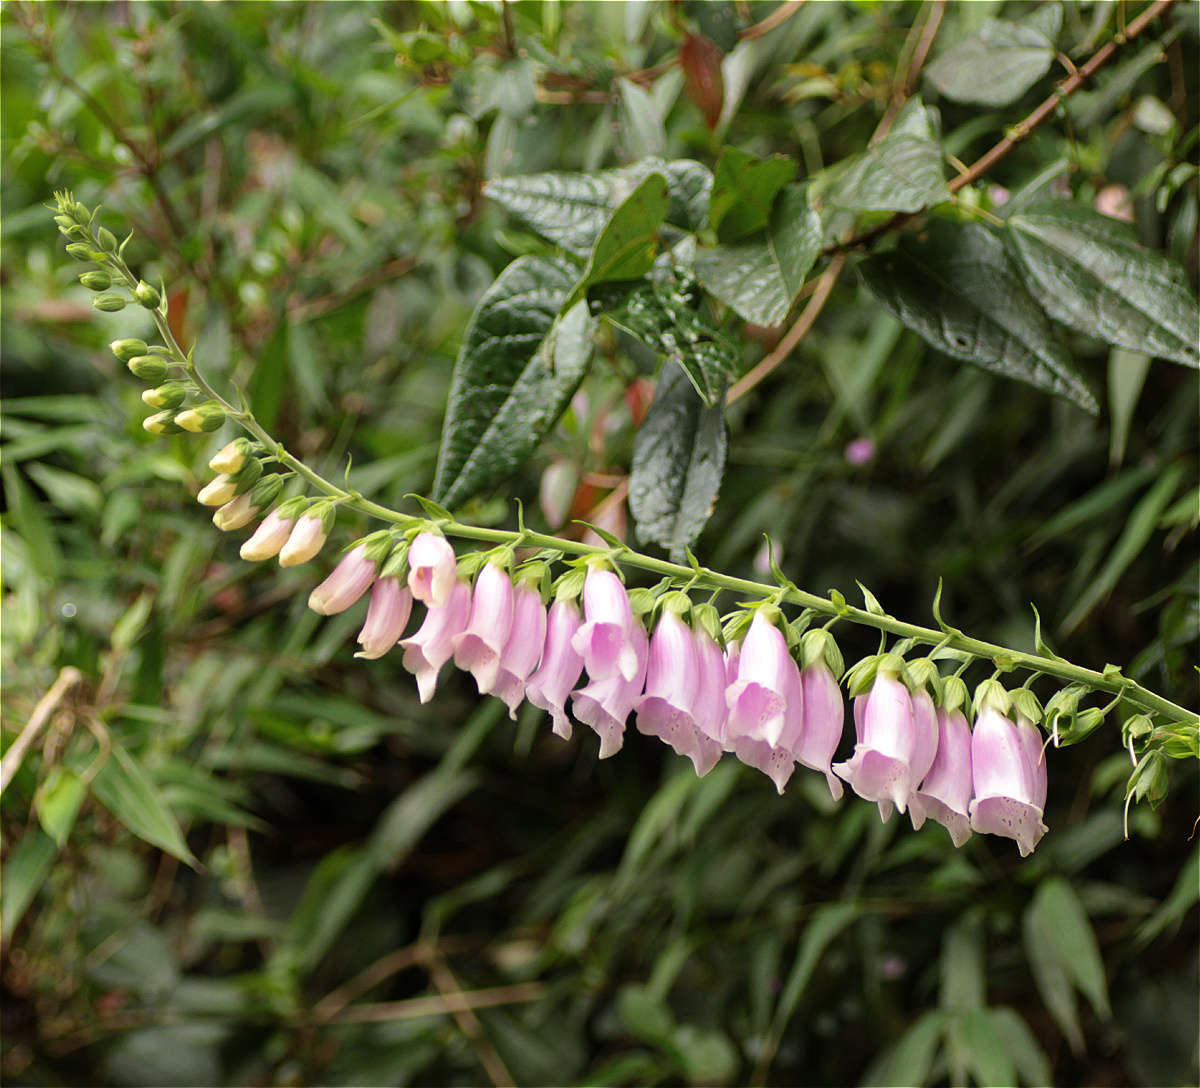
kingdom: Plantae
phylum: Tracheophyta
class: Magnoliopsida
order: Lamiales
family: Plantaginaceae
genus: Digitalis
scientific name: Digitalis purpurea
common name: Foxglove
